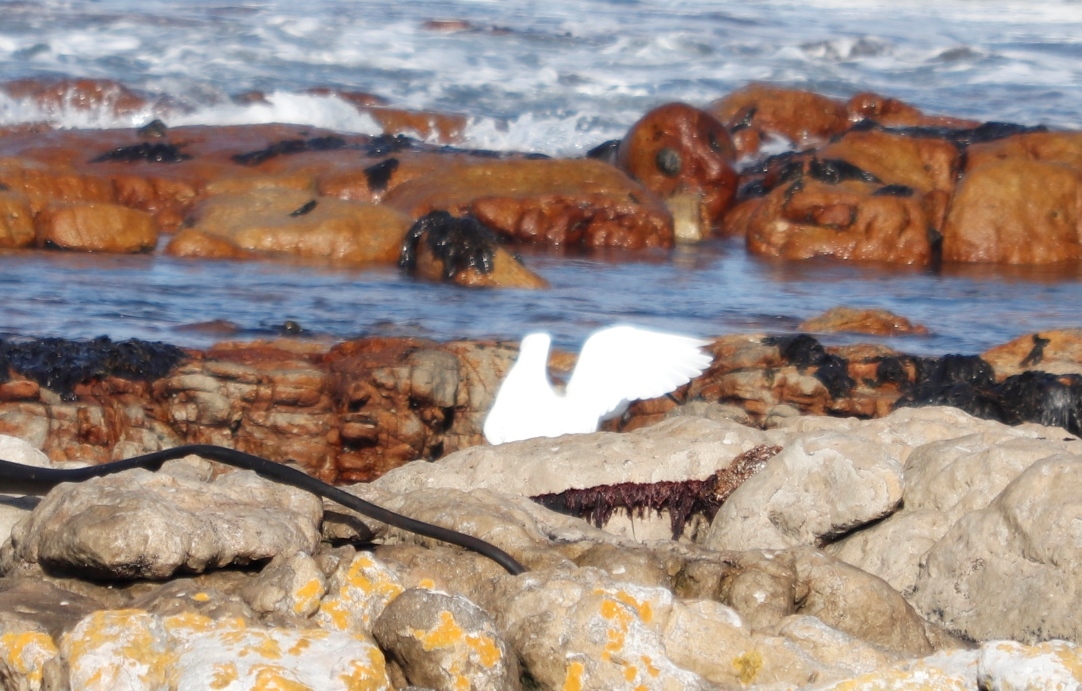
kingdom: Animalia
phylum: Chordata
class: Aves
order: Pelecaniformes
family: Ardeidae
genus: Egretta
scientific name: Egretta garzetta
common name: Little egret
